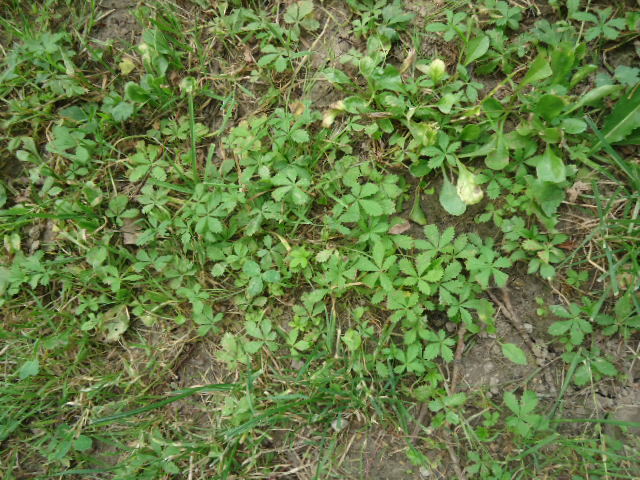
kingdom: Plantae
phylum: Tracheophyta
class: Magnoliopsida
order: Rosales
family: Rosaceae
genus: Potentilla
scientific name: Potentilla reptans
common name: Creeping cinquefoil
